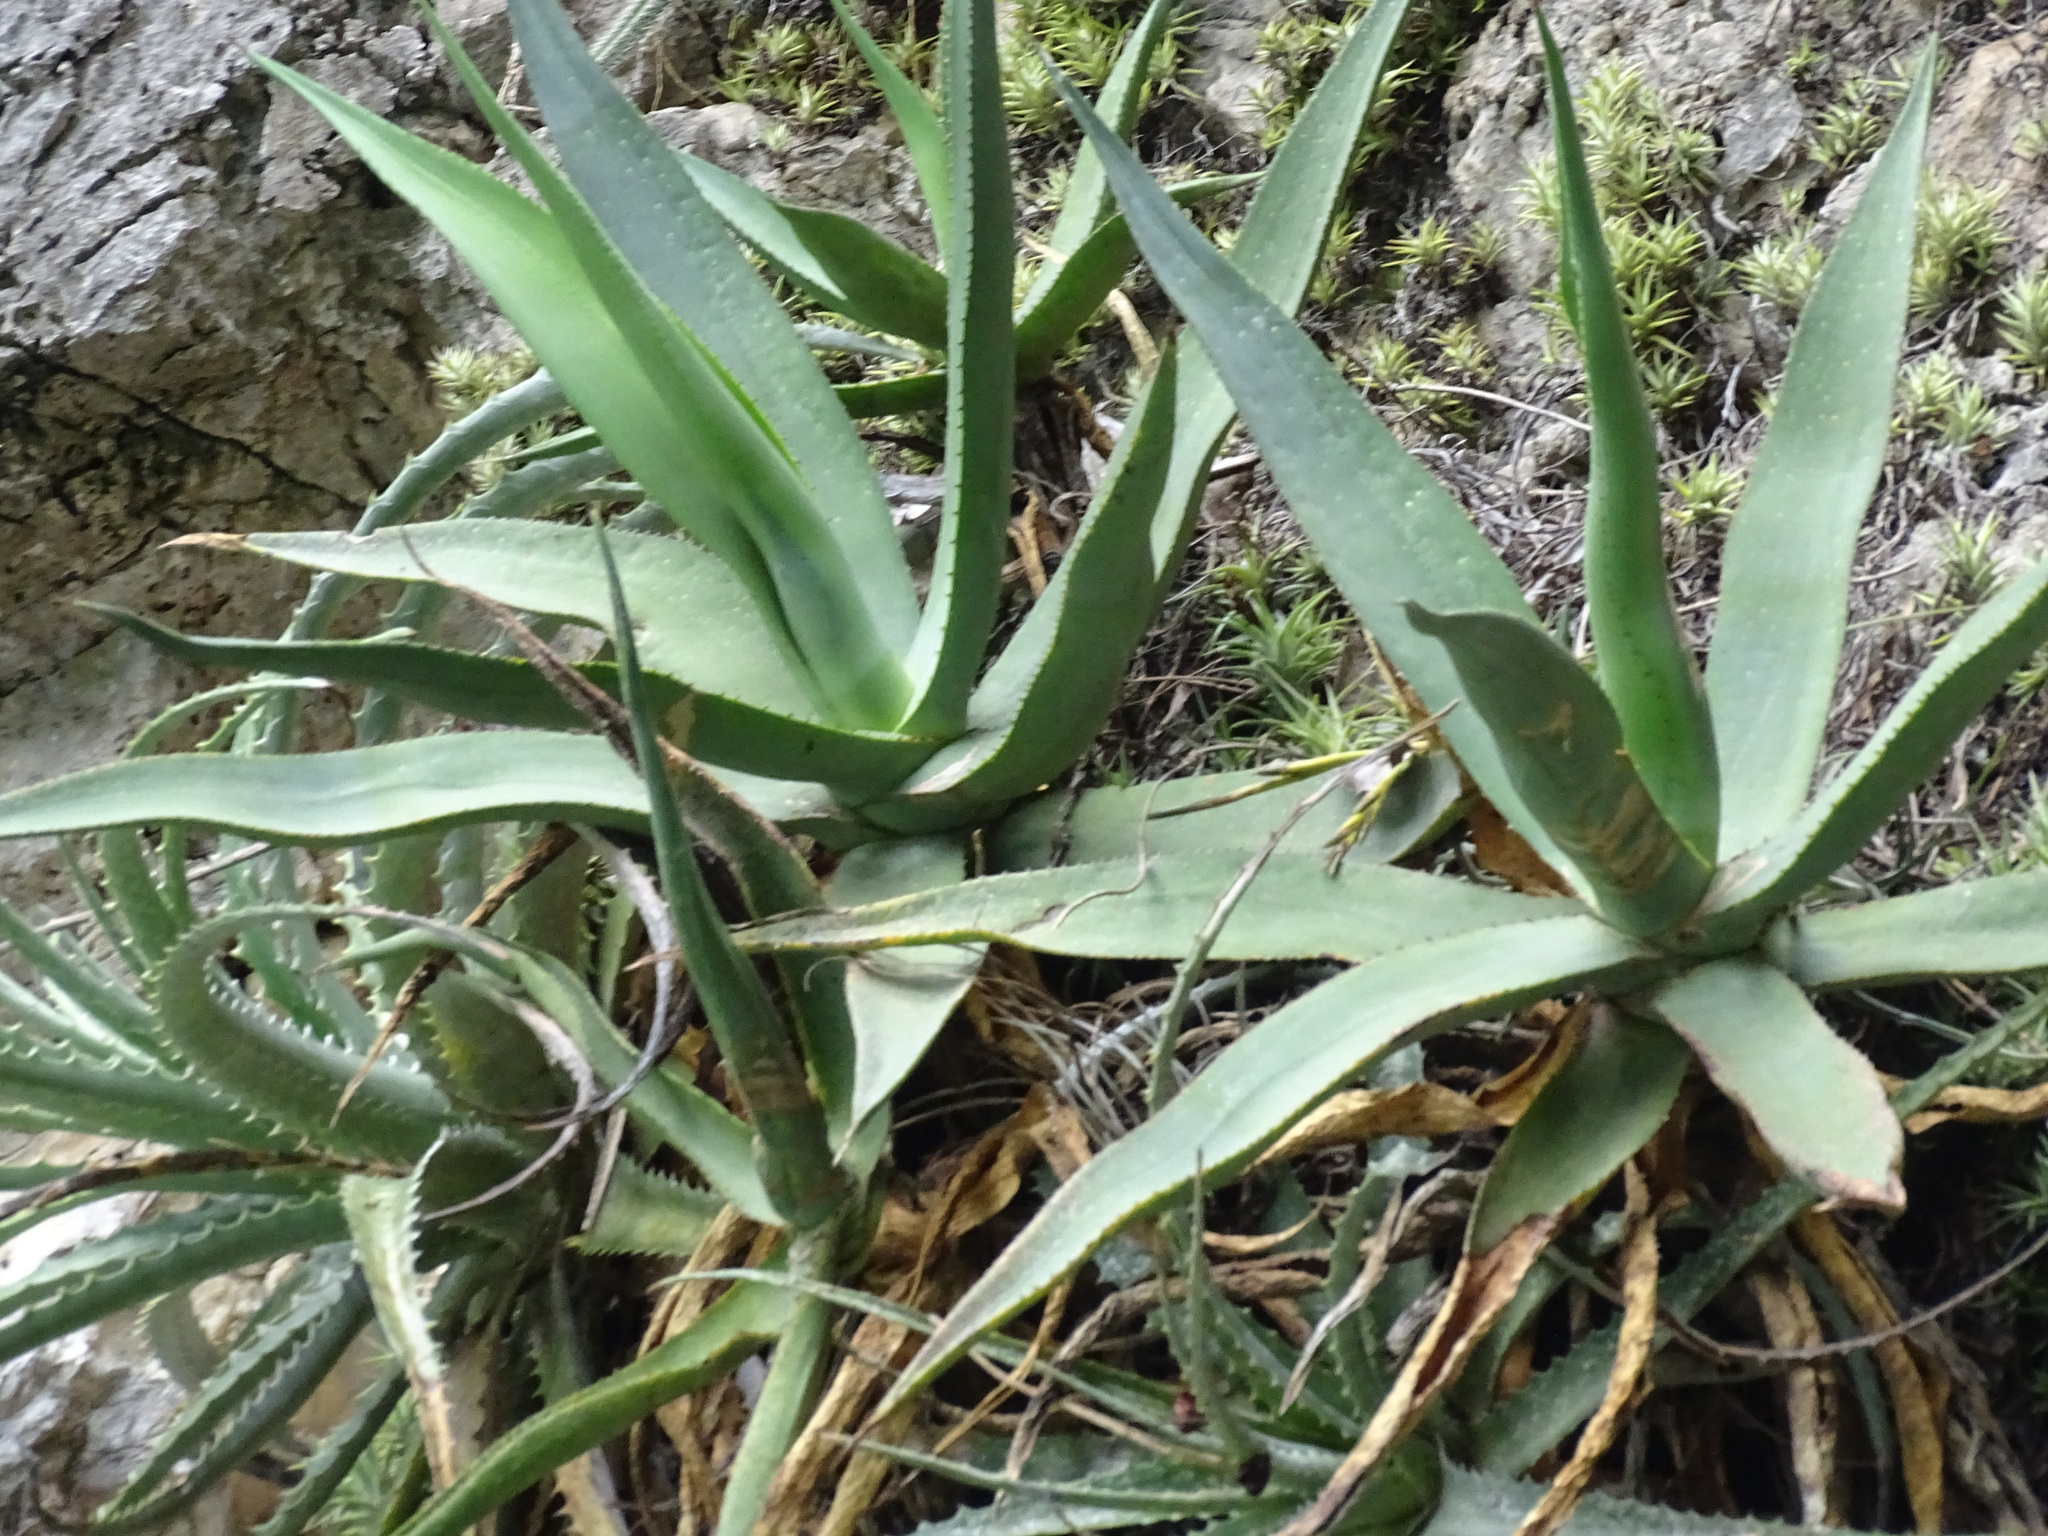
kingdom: Plantae
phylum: Tracheophyta
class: Liliopsida
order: Asparagales
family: Asparagaceae
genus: Agave
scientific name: Agave
